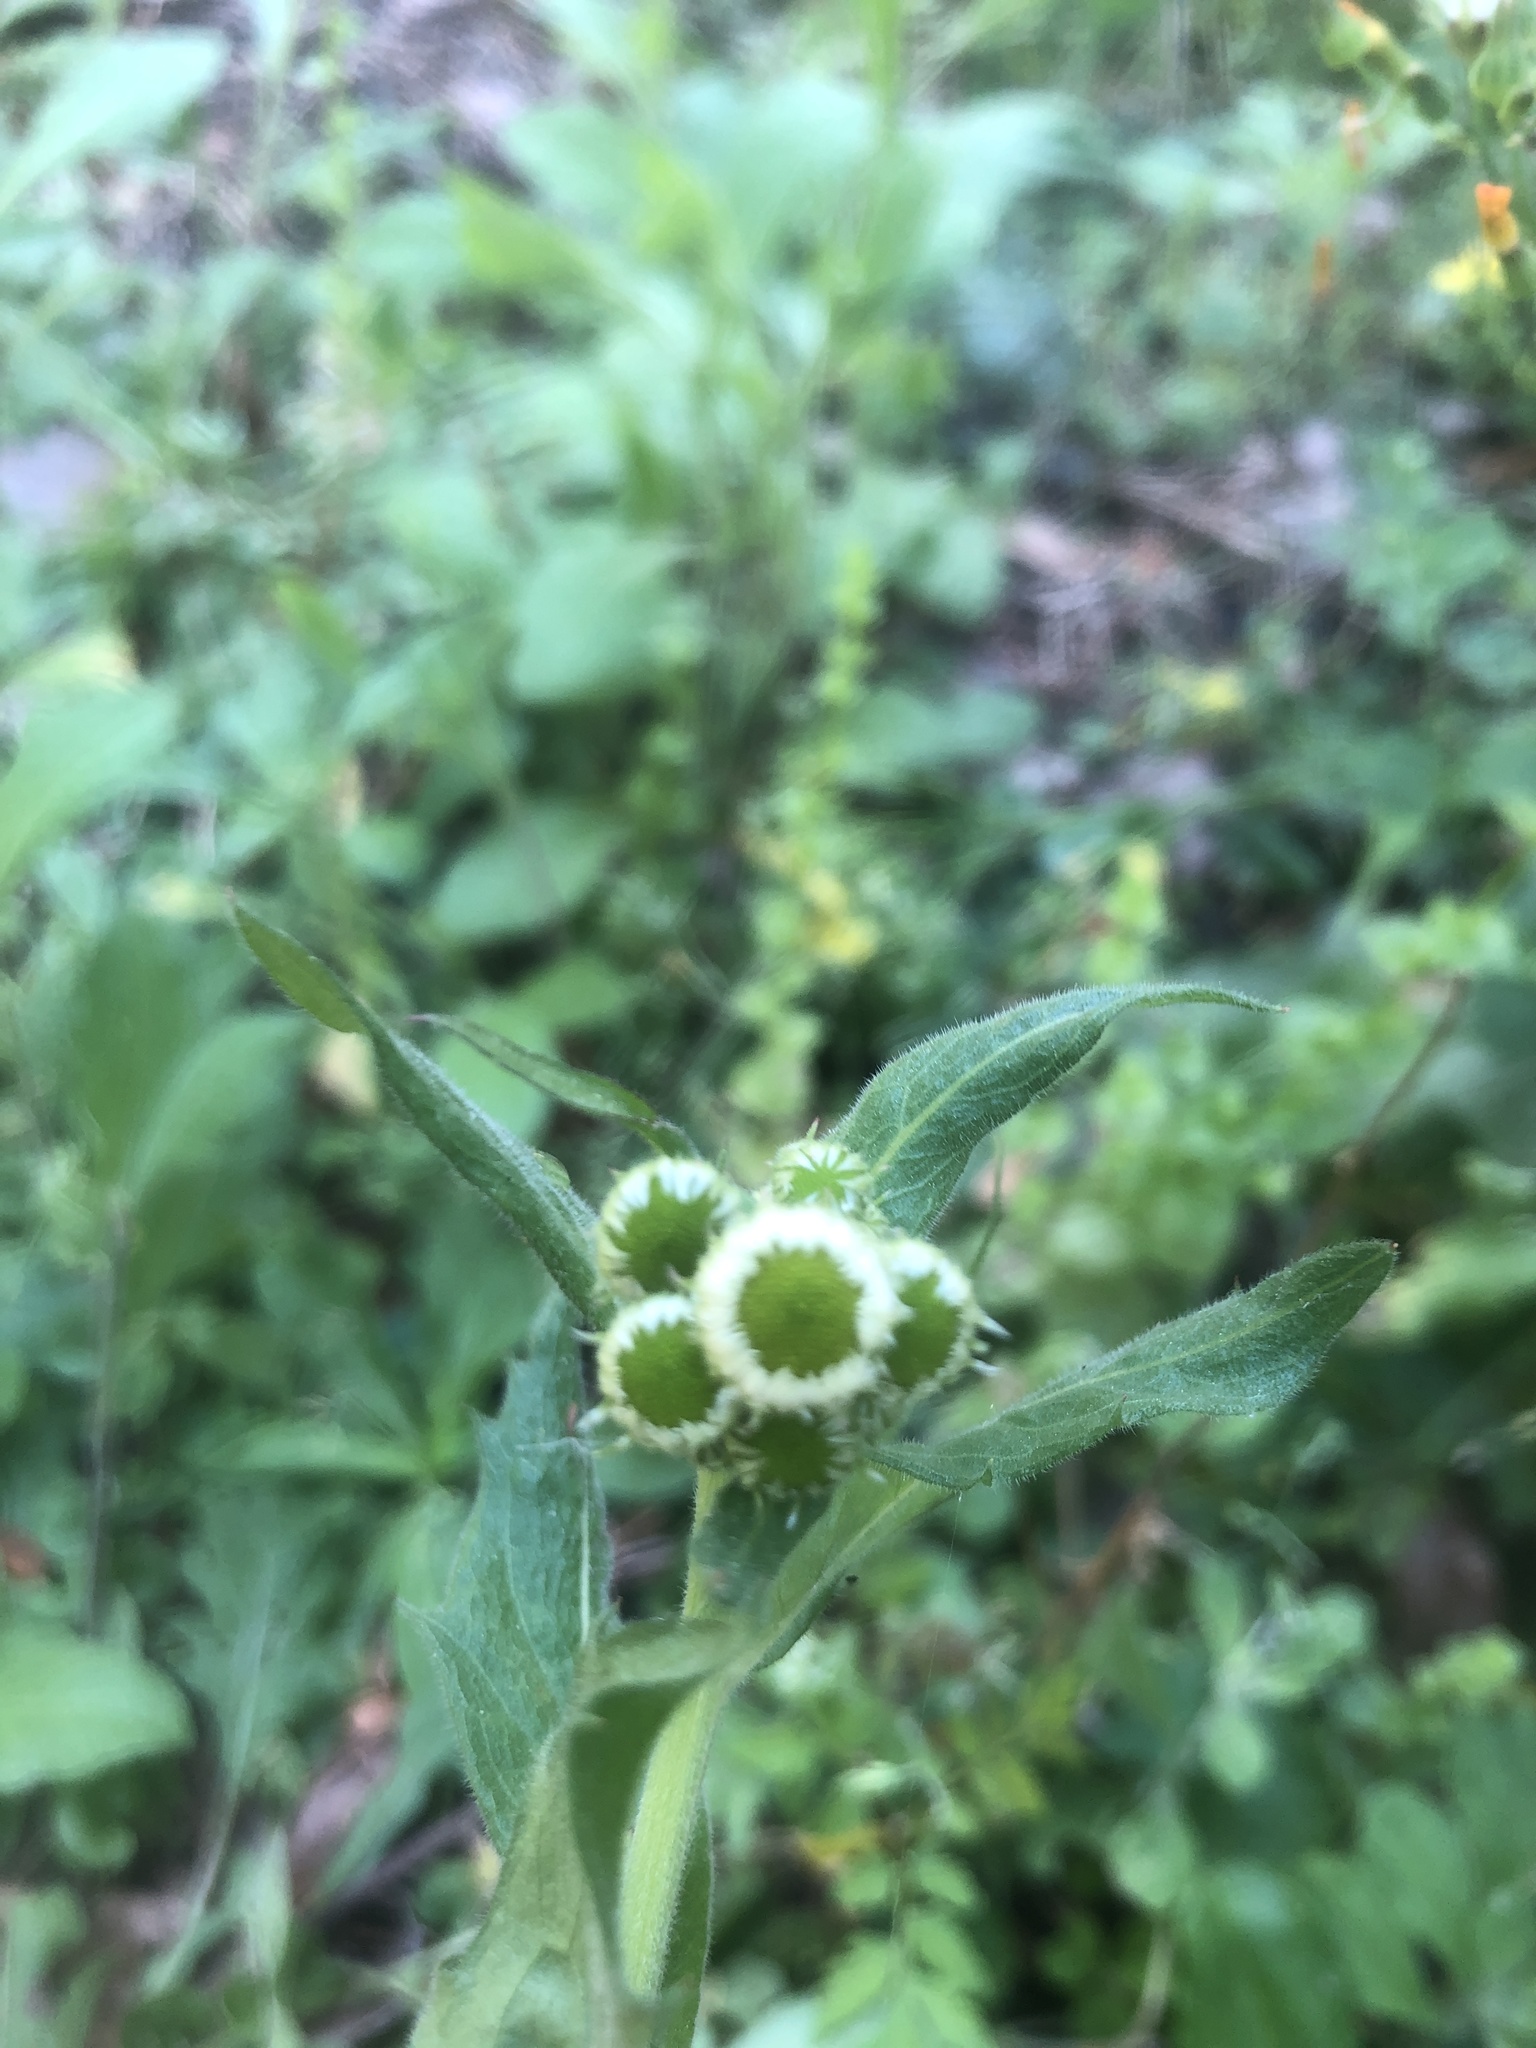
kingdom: Plantae
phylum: Tracheophyta
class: Magnoliopsida
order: Asterales
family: Asteraceae
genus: Erigeron
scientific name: Erigeron quercifolius
